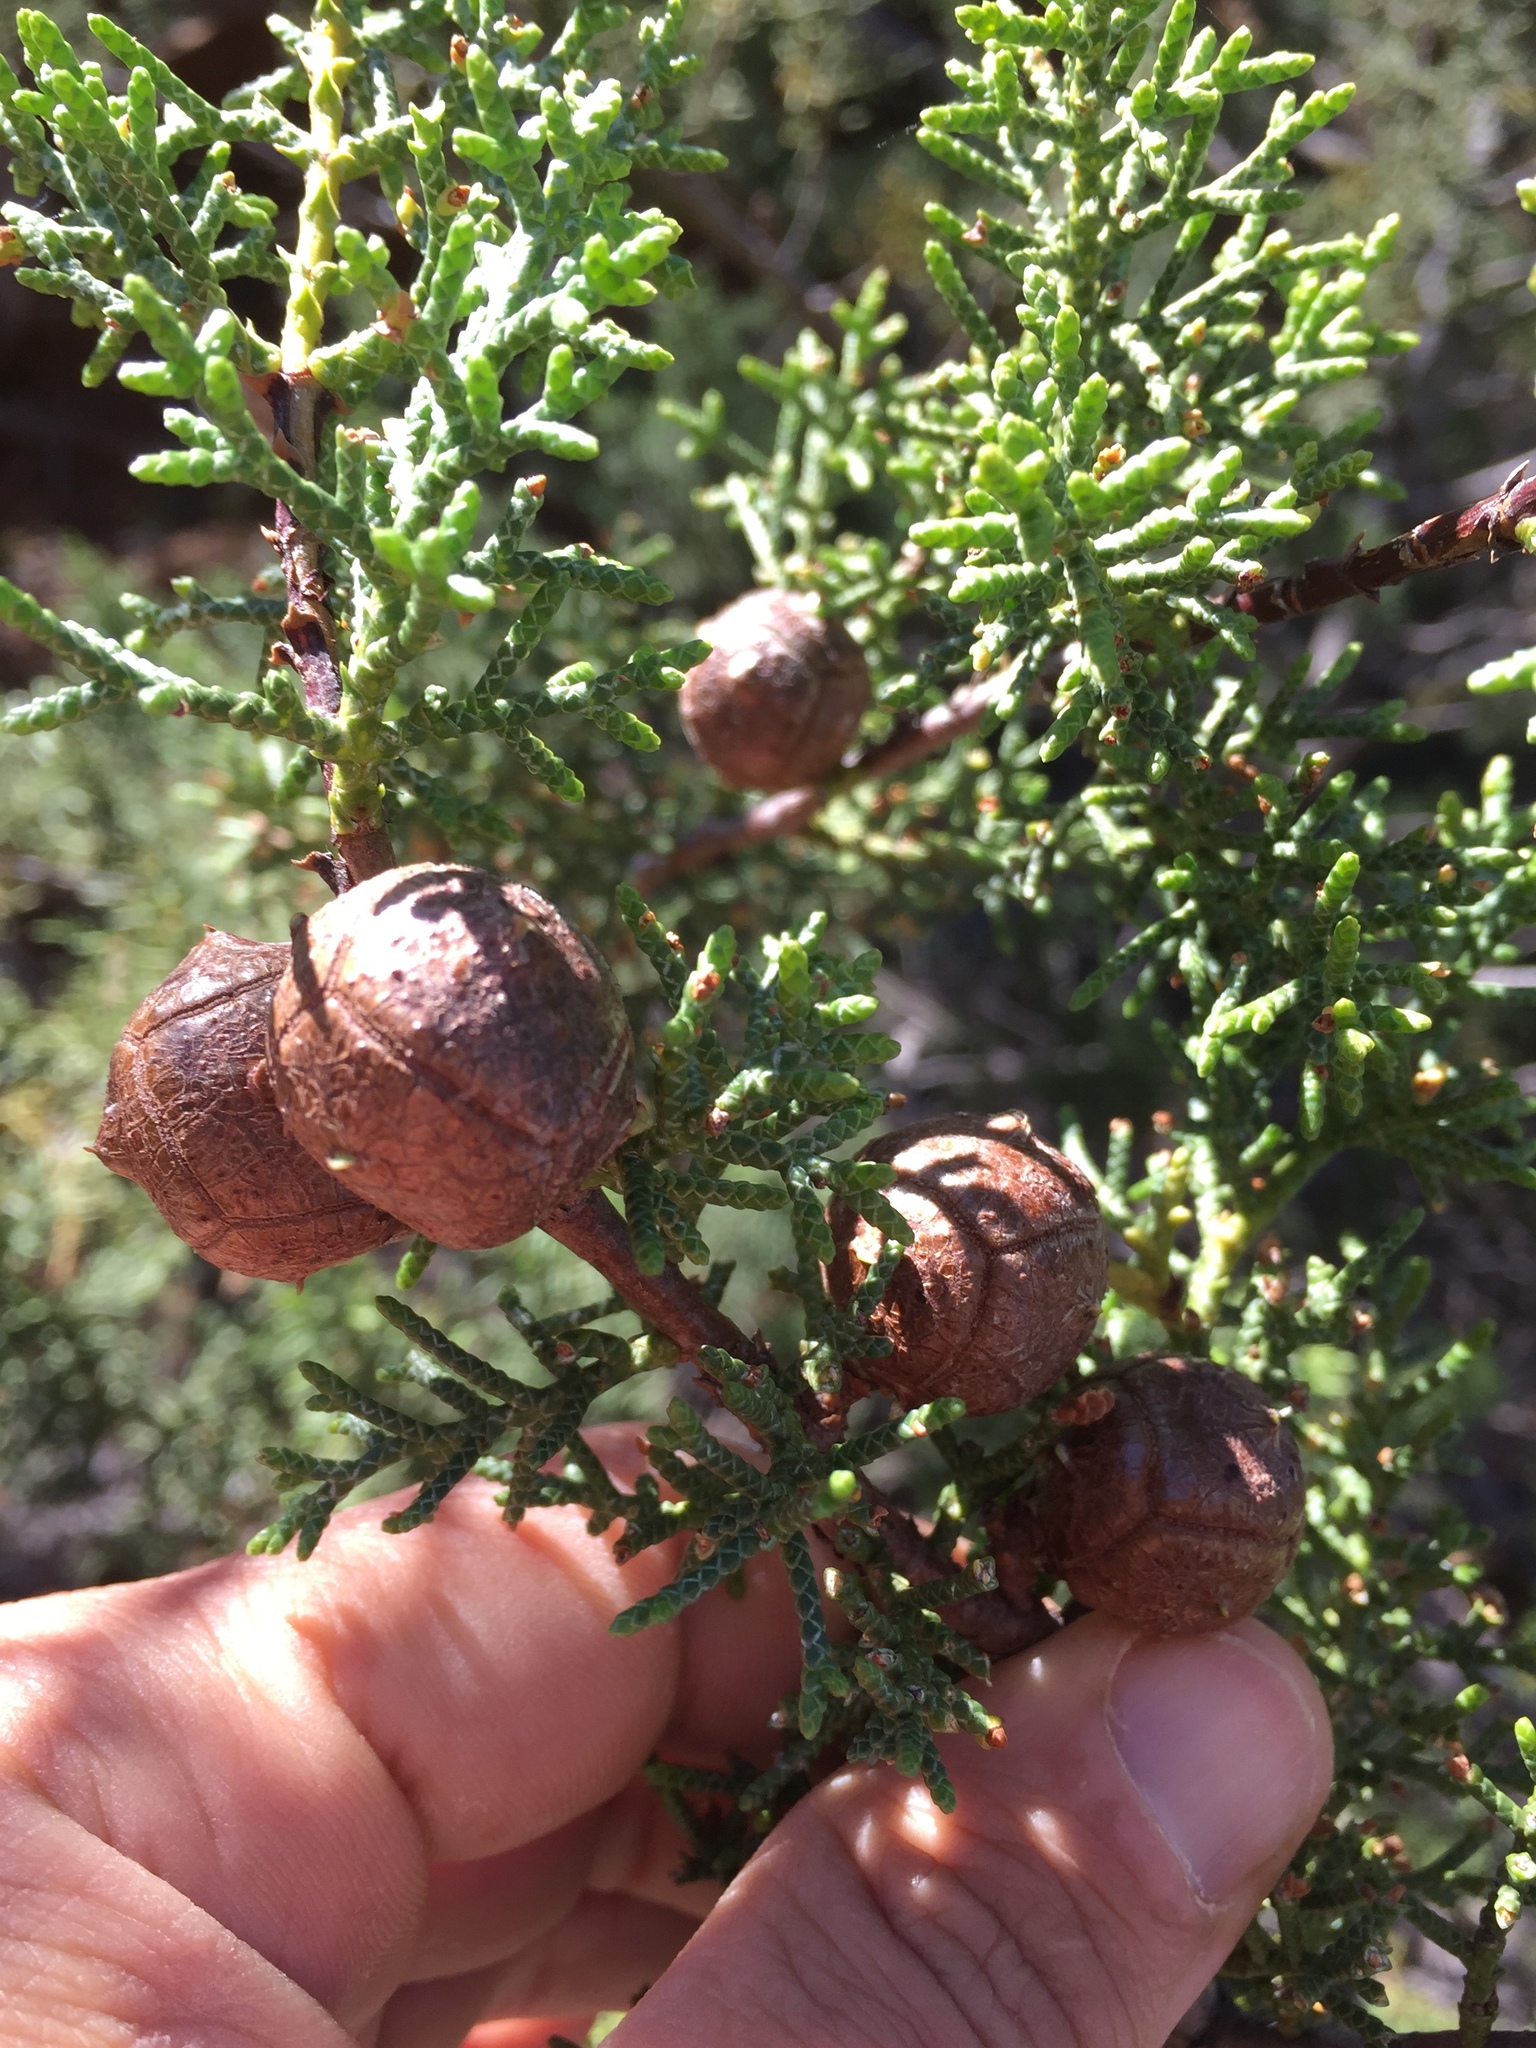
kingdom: Plantae
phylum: Tracheophyta
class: Pinopsida
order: Pinales
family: Cupressaceae
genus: Cupressus
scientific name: Cupressus sargentii
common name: Sargent cypress
